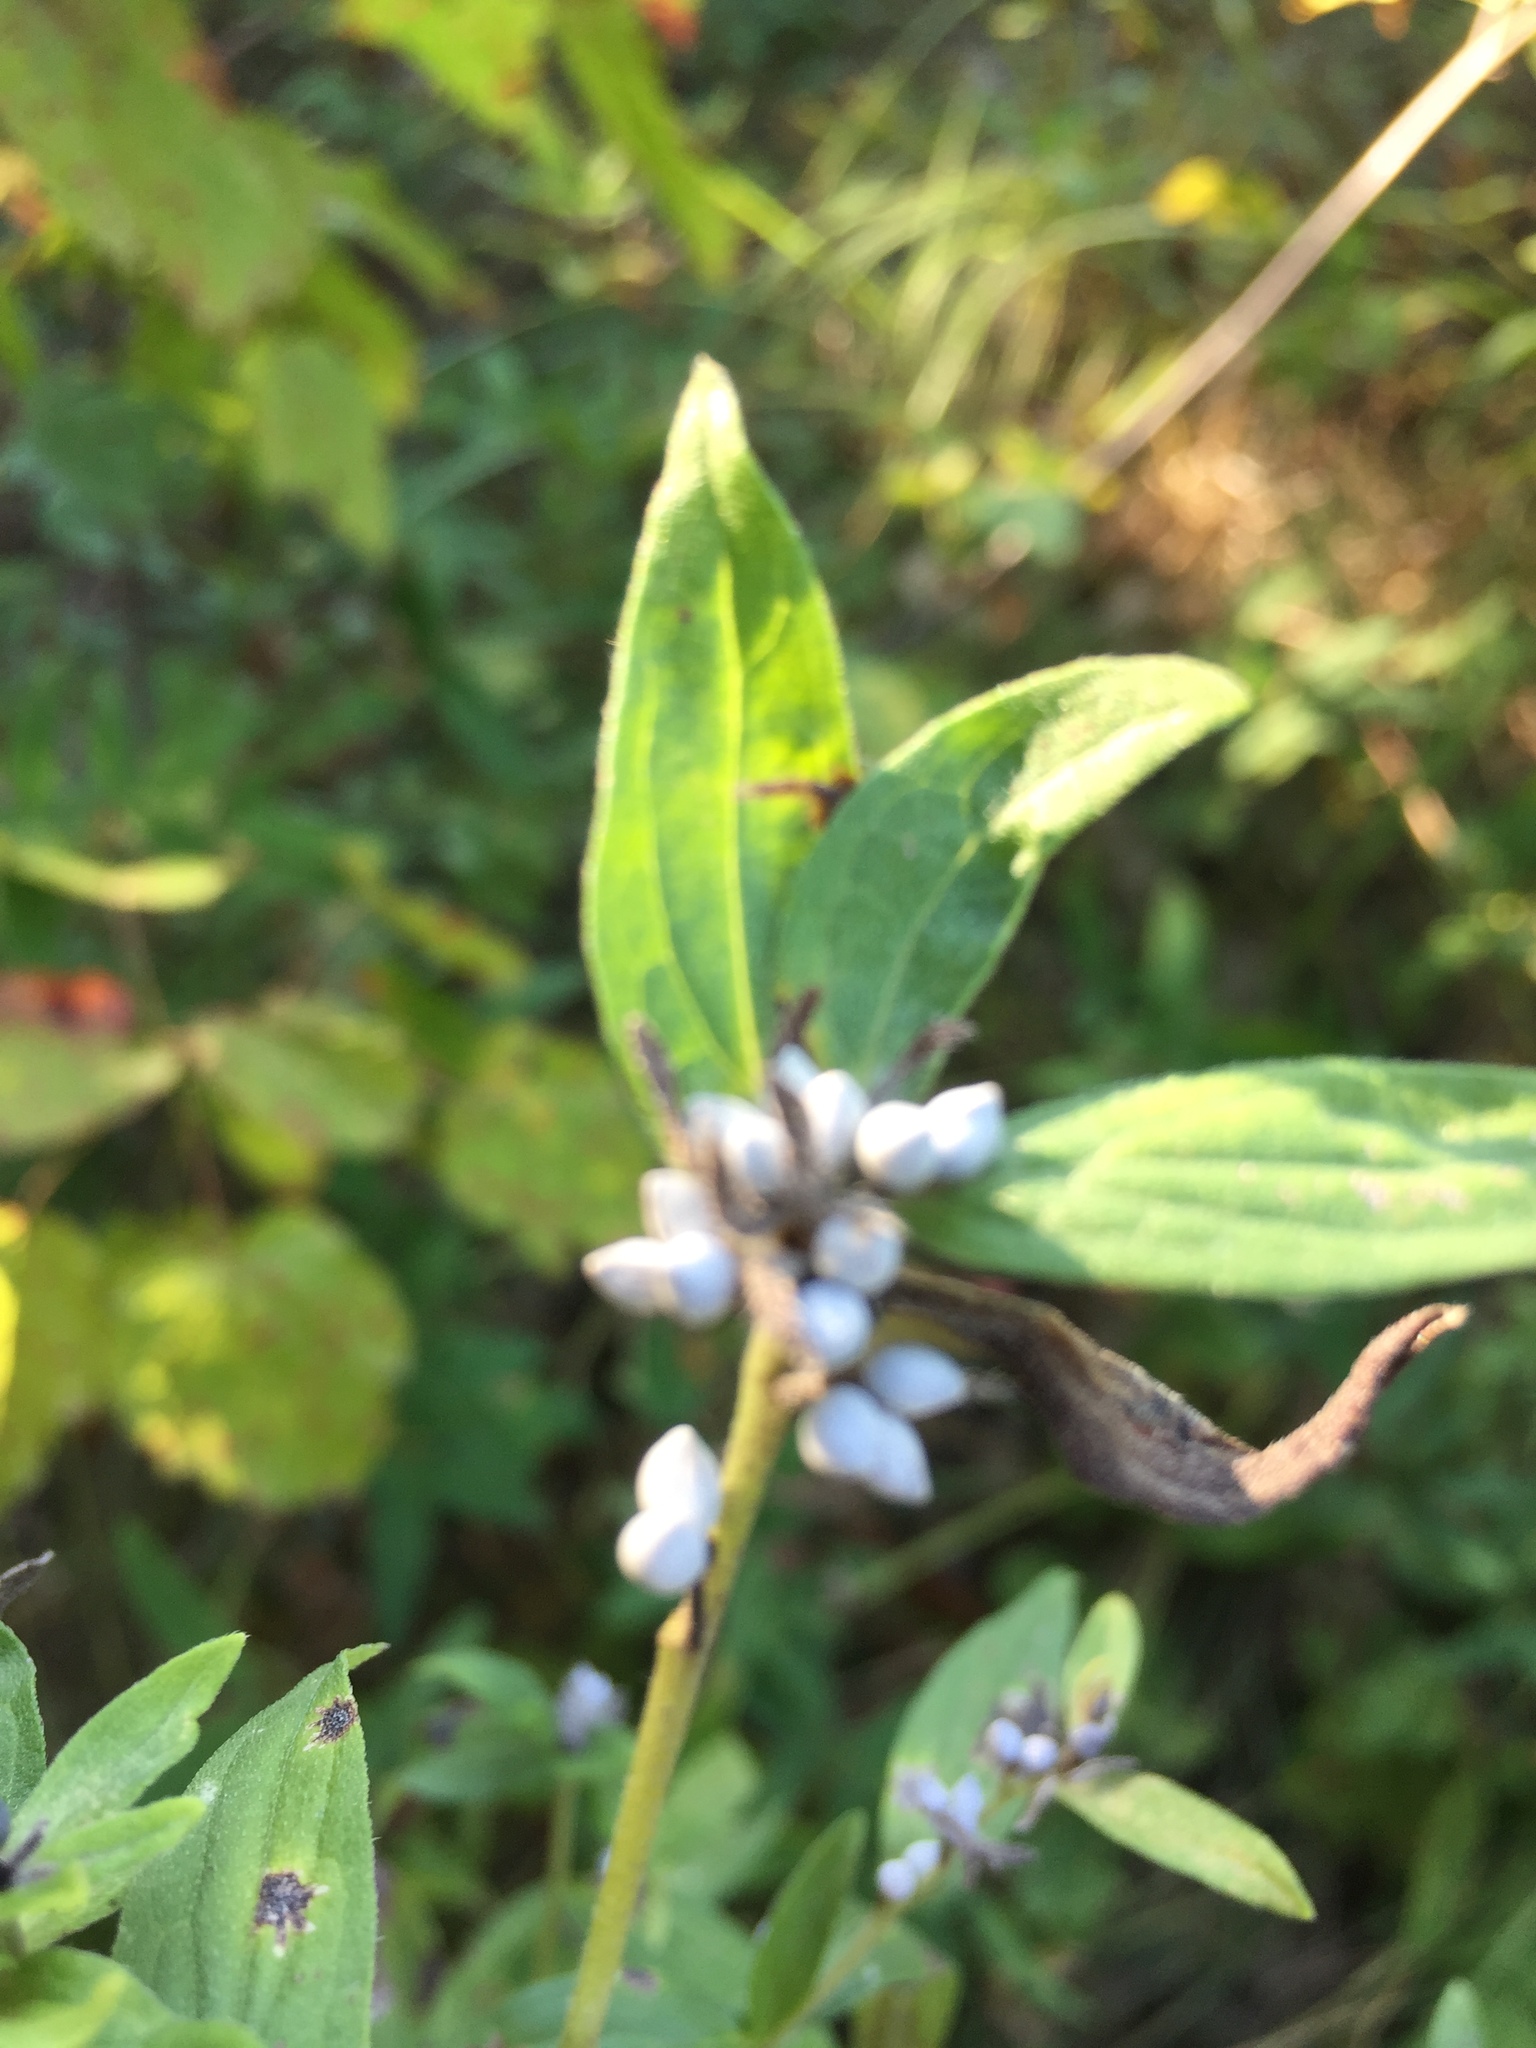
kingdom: Plantae
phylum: Tracheophyta
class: Magnoliopsida
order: Boraginales
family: Boraginaceae
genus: Lithospermum
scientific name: Lithospermum officinale
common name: Common gromwell
